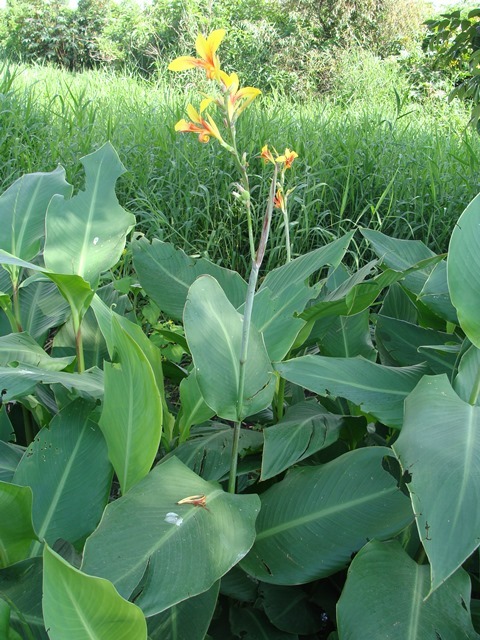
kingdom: Plantae
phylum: Tracheophyta
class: Liliopsida
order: Zingiberales
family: Cannaceae
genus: Canna
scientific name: Canna indica
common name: Indian shot
